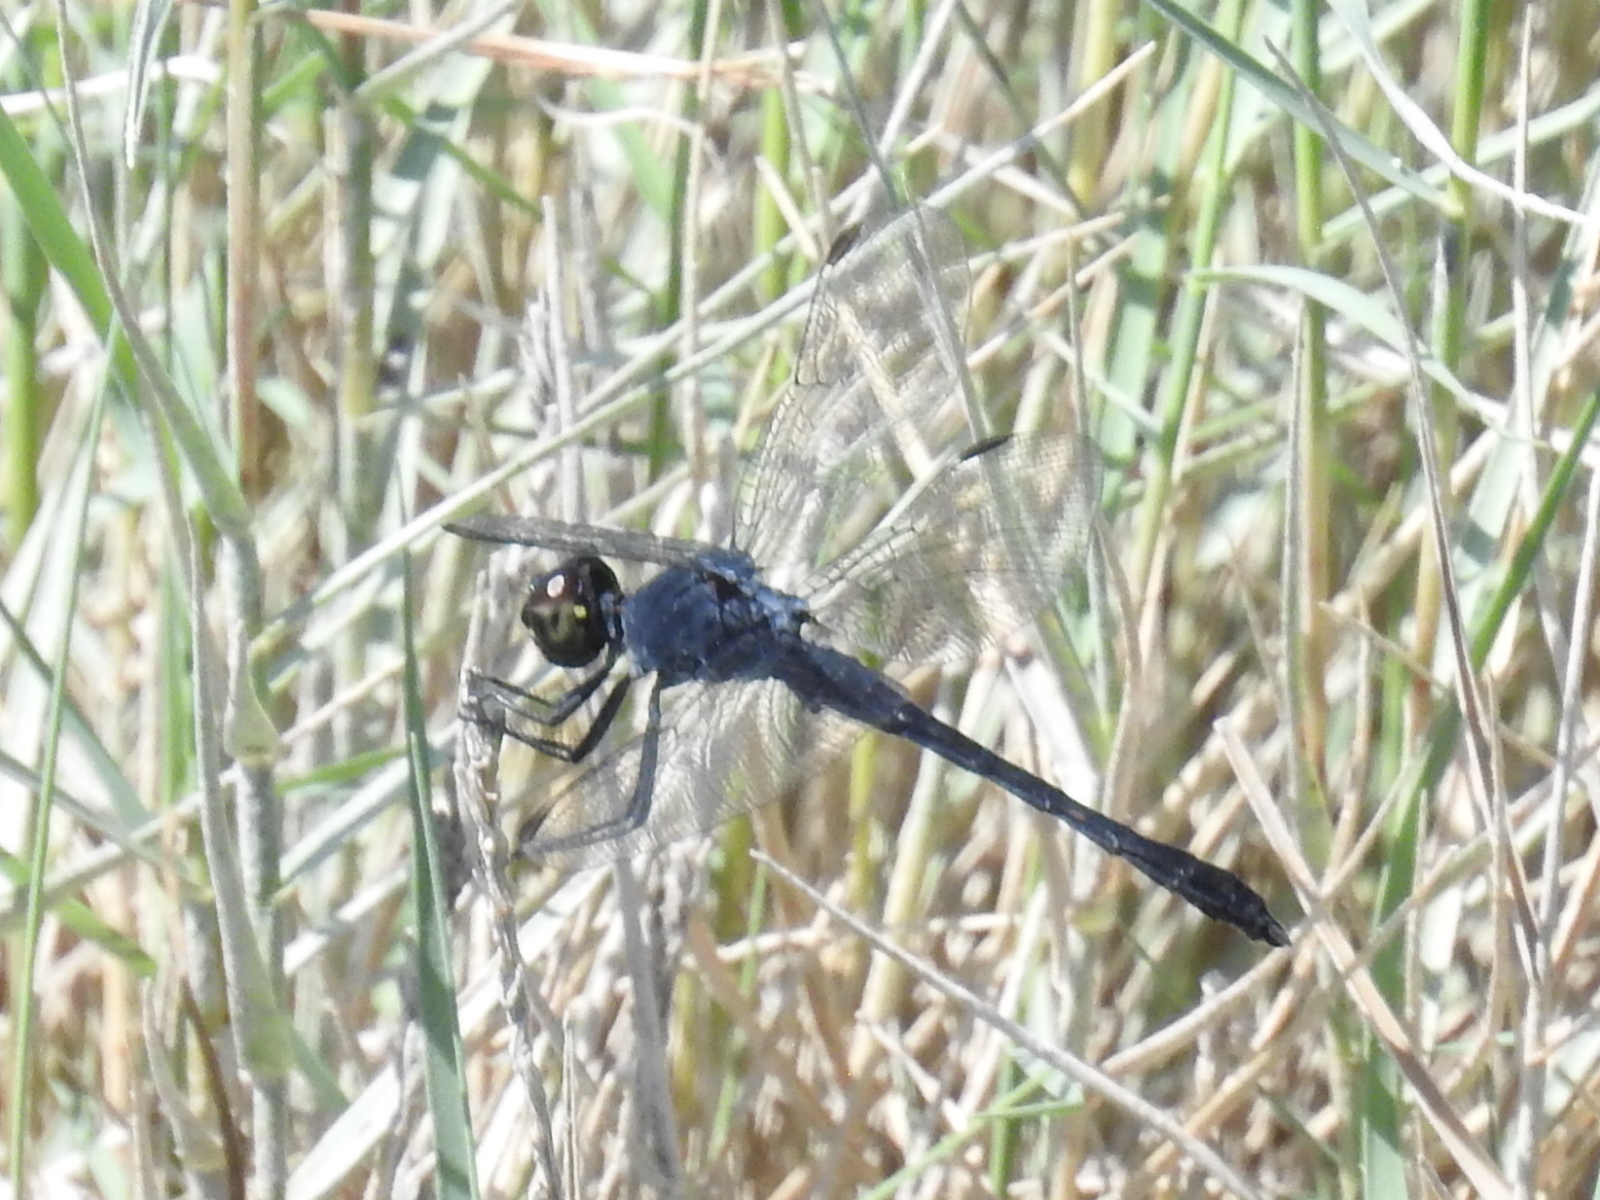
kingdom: Animalia
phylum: Arthropoda
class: Insecta
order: Odonata
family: Libellulidae
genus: Erythrodiplax
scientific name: Erythrodiplax berenice
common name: Seaside dragonlet
